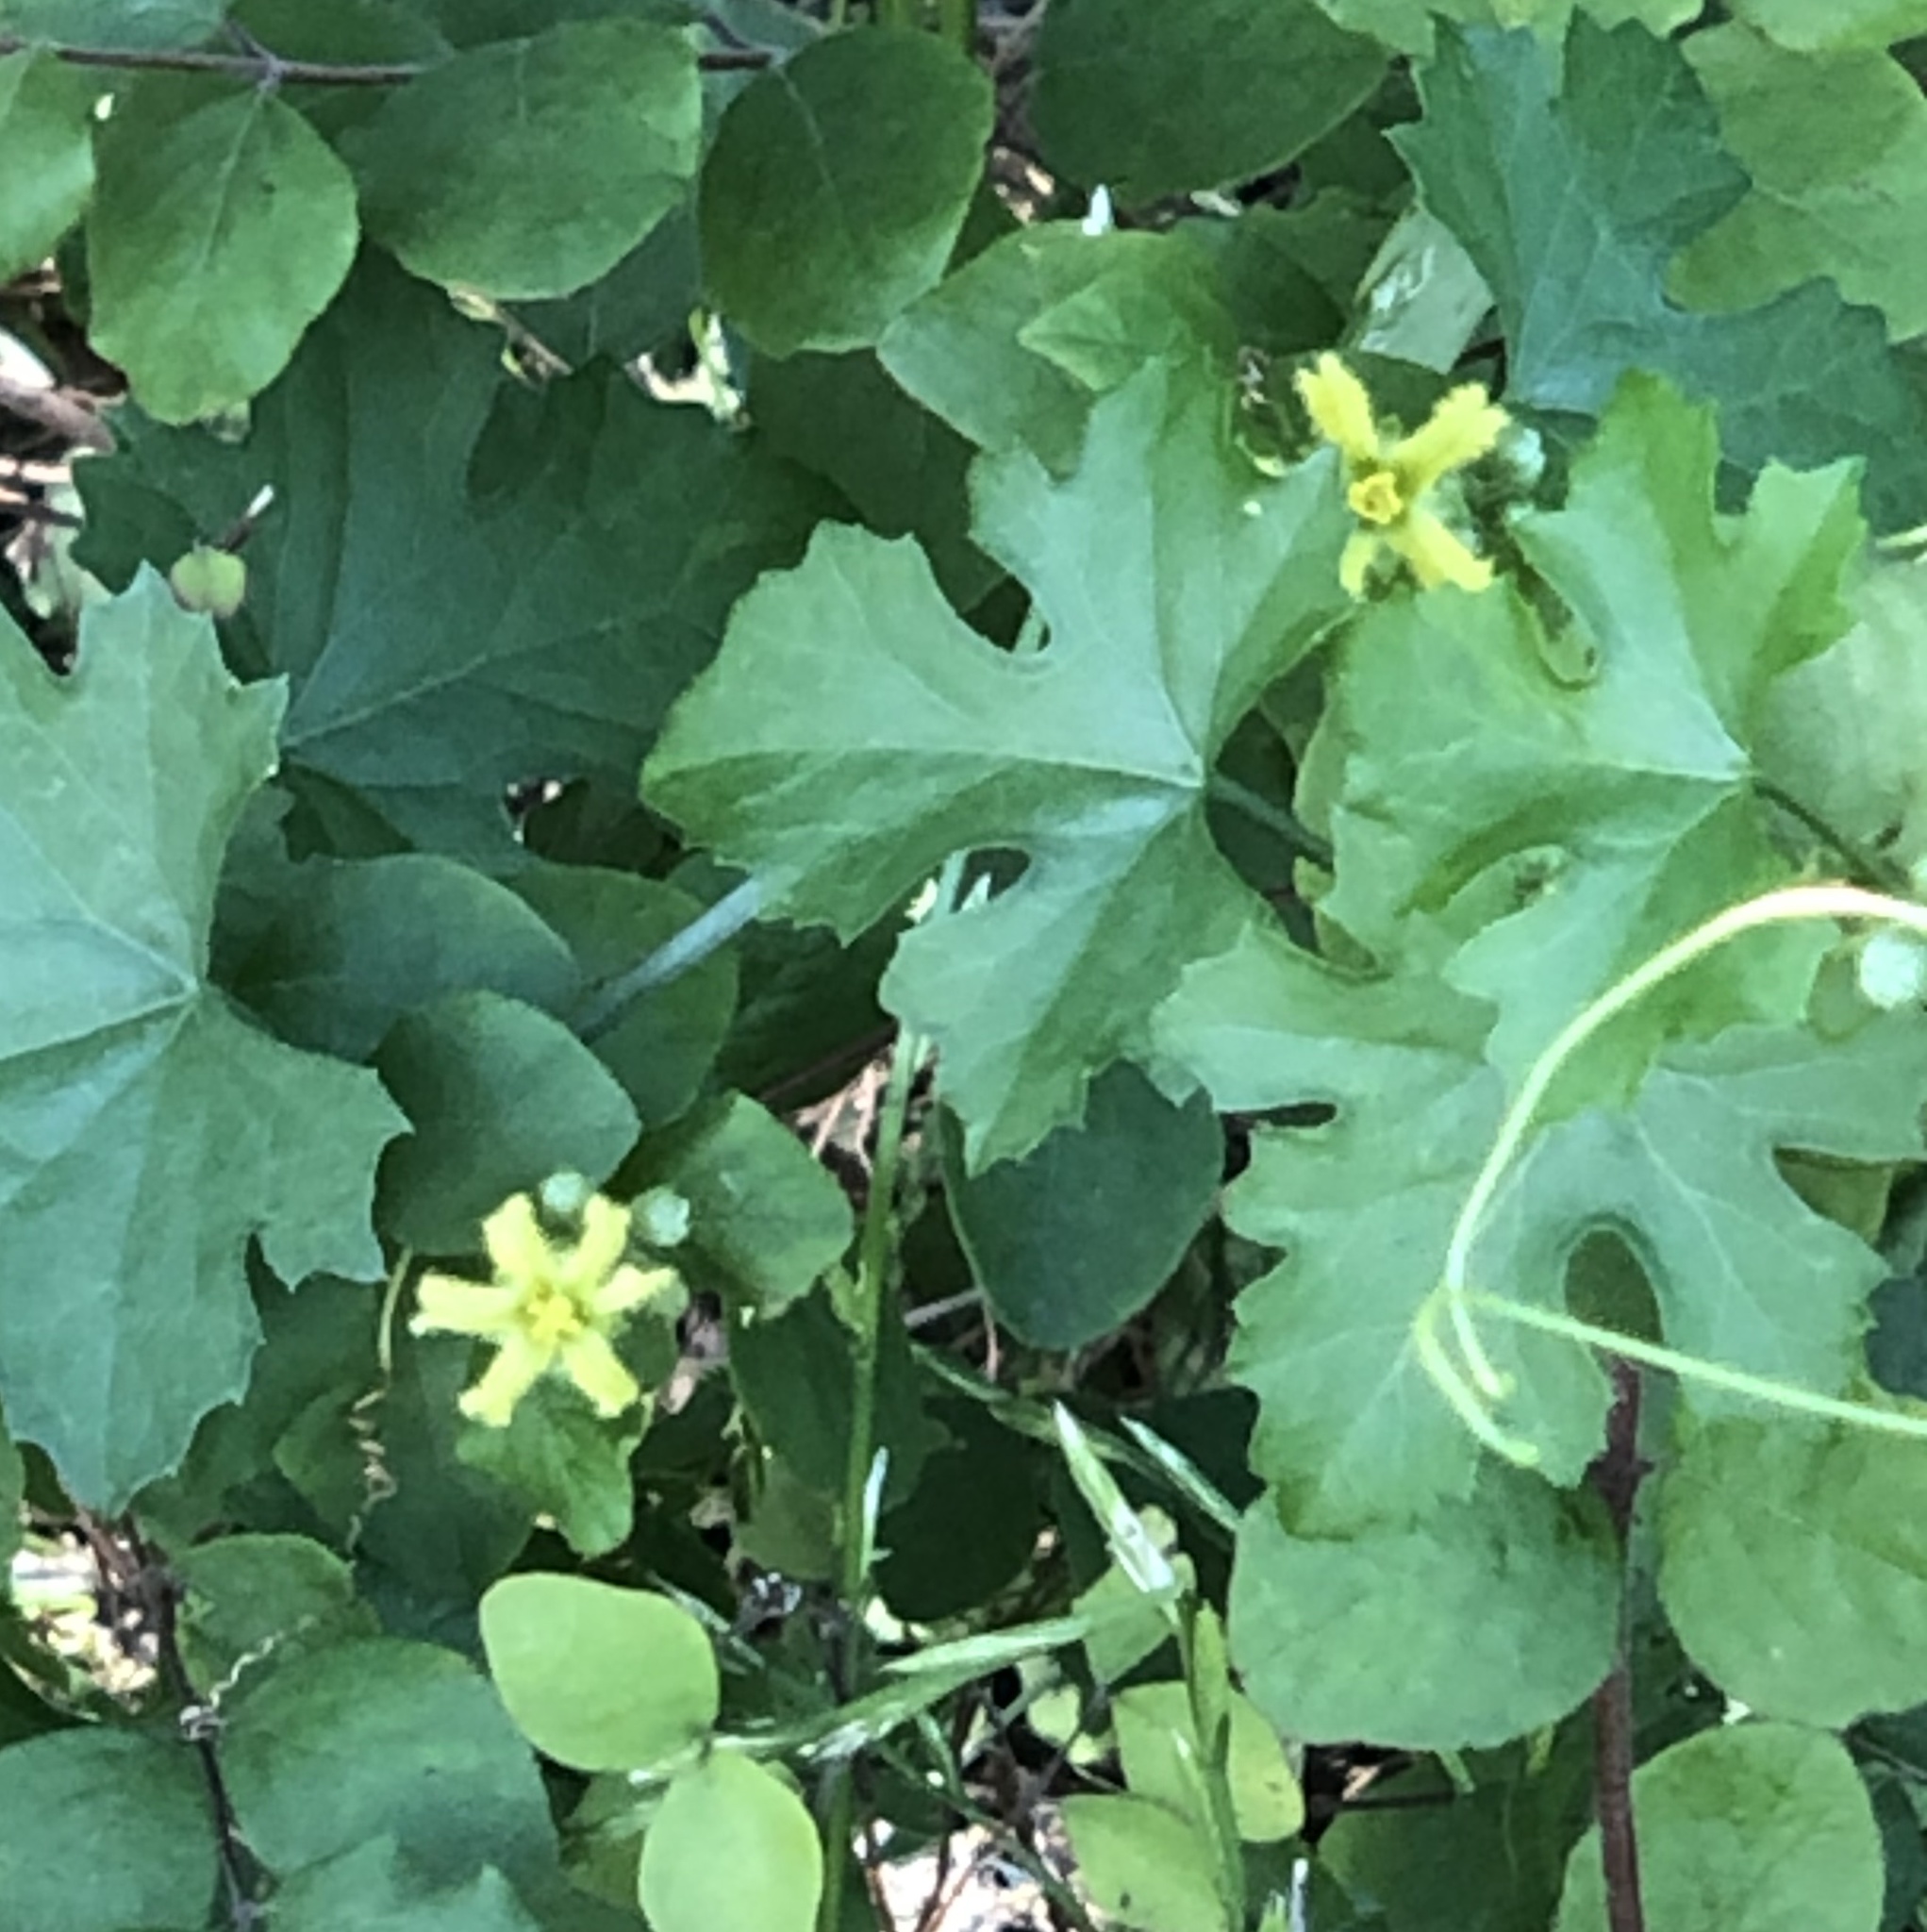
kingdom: Plantae
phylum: Tracheophyta
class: Magnoliopsida
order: Cucurbitales
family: Cucurbitaceae
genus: Ibervillea
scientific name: Ibervillea lindheimeri
